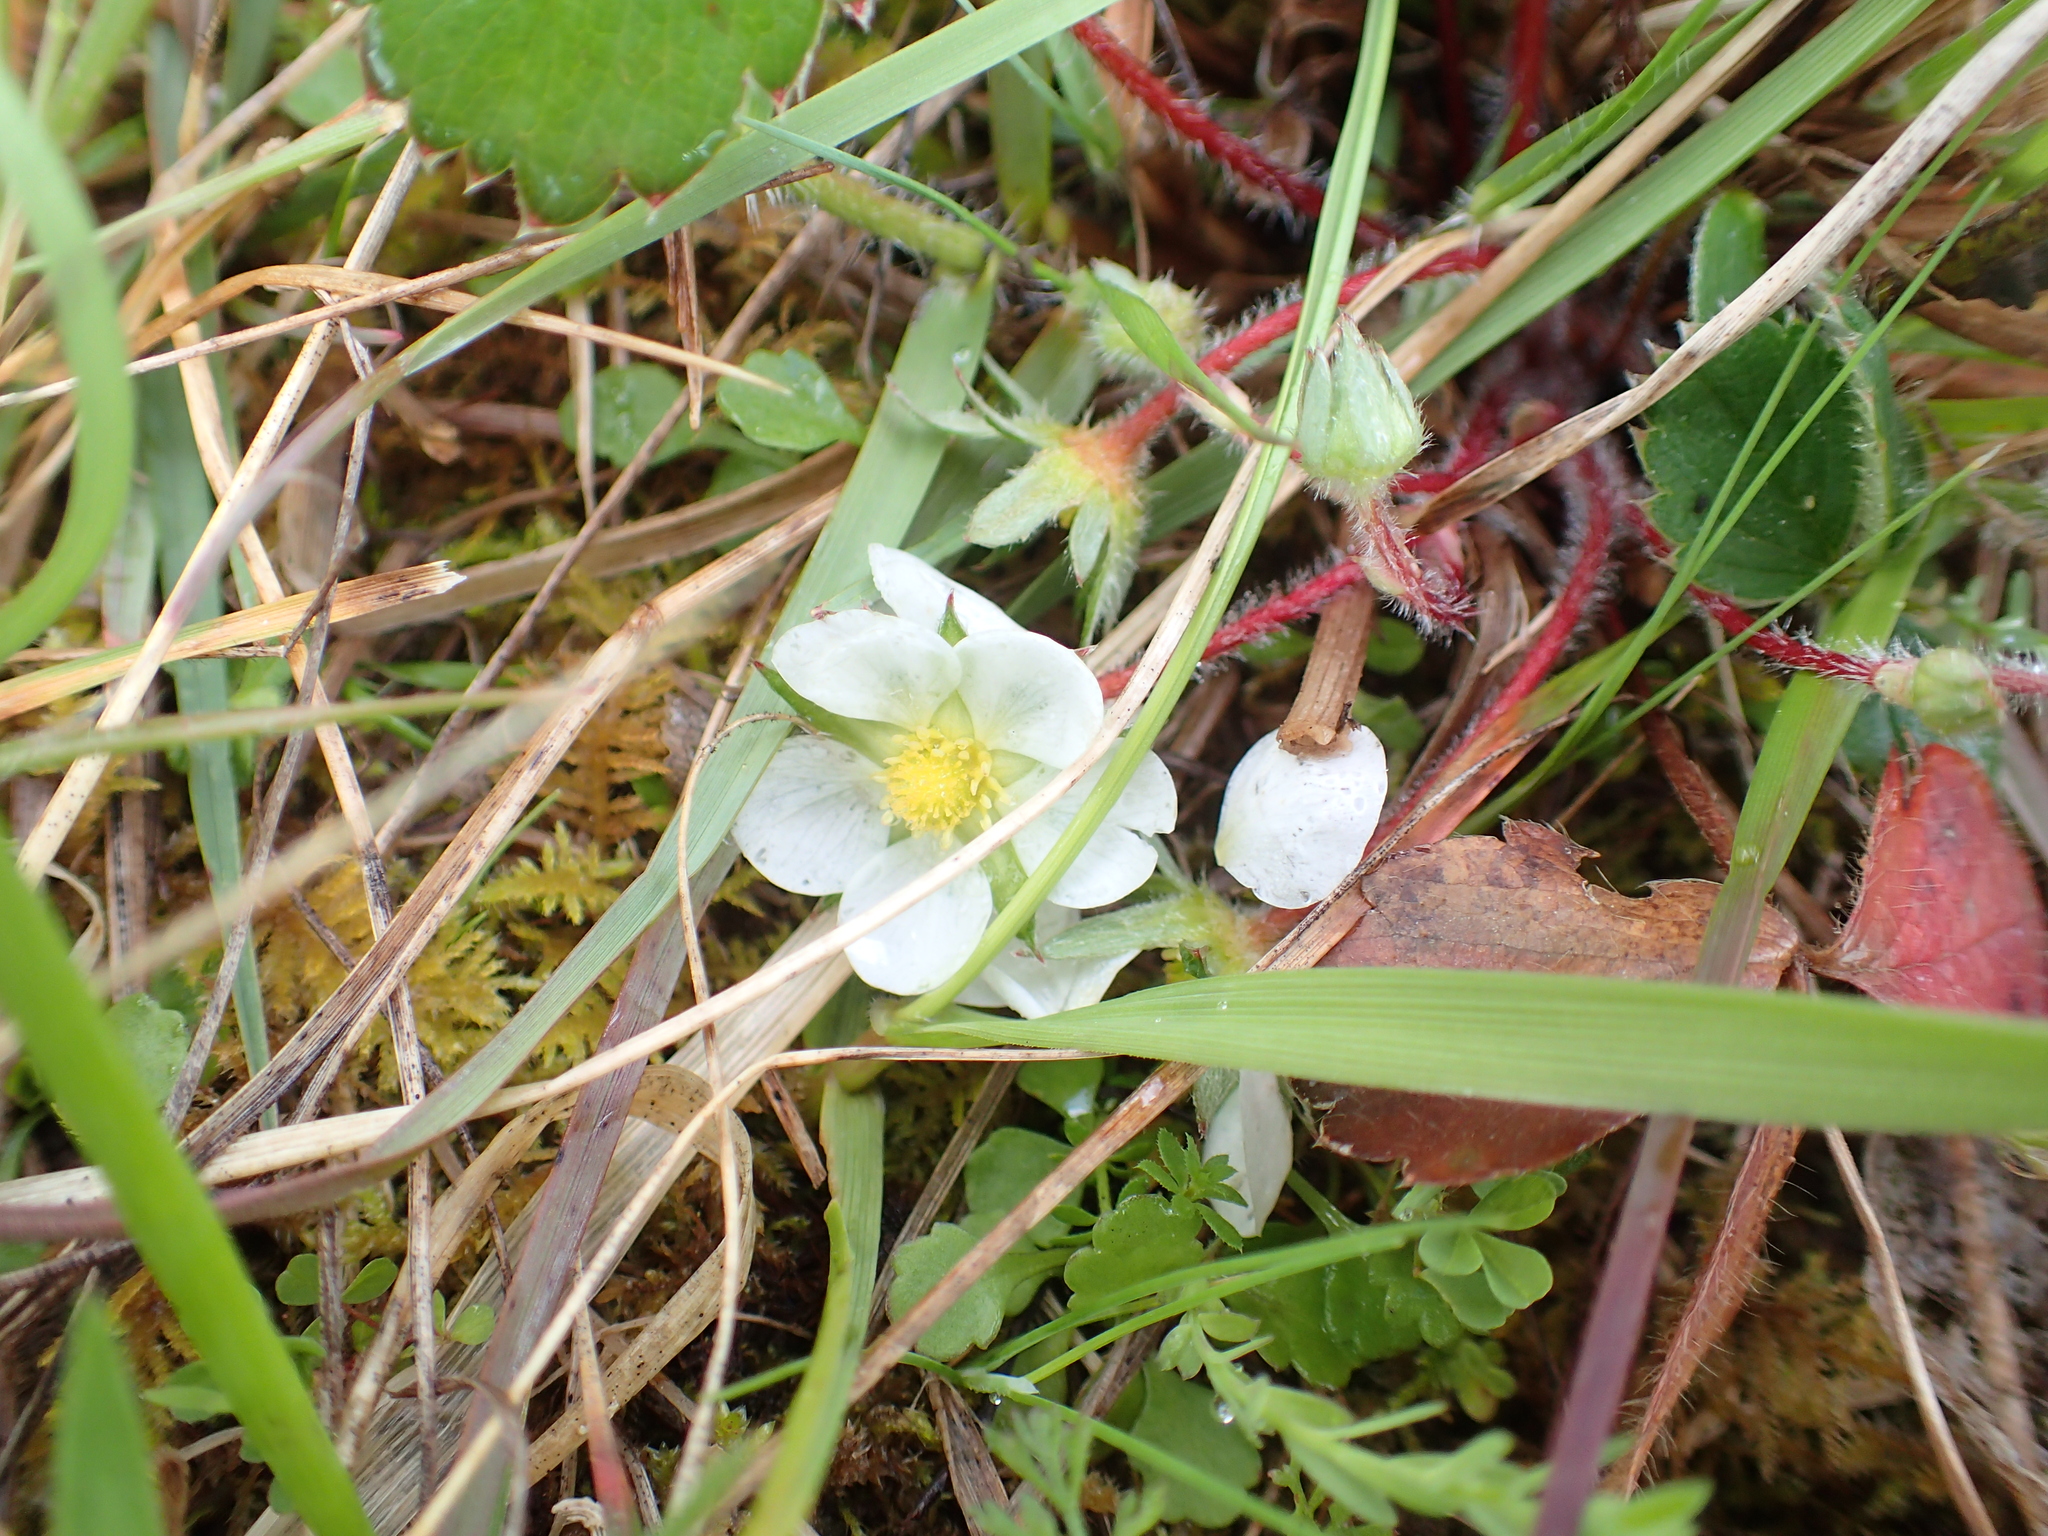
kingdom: Plantae
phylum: Tracheophyta
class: Magnoliopsida
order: Rosales
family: Rosaceae
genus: Fragaria
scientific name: Fragaria virginiana
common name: Thickleaved wild strawberry
